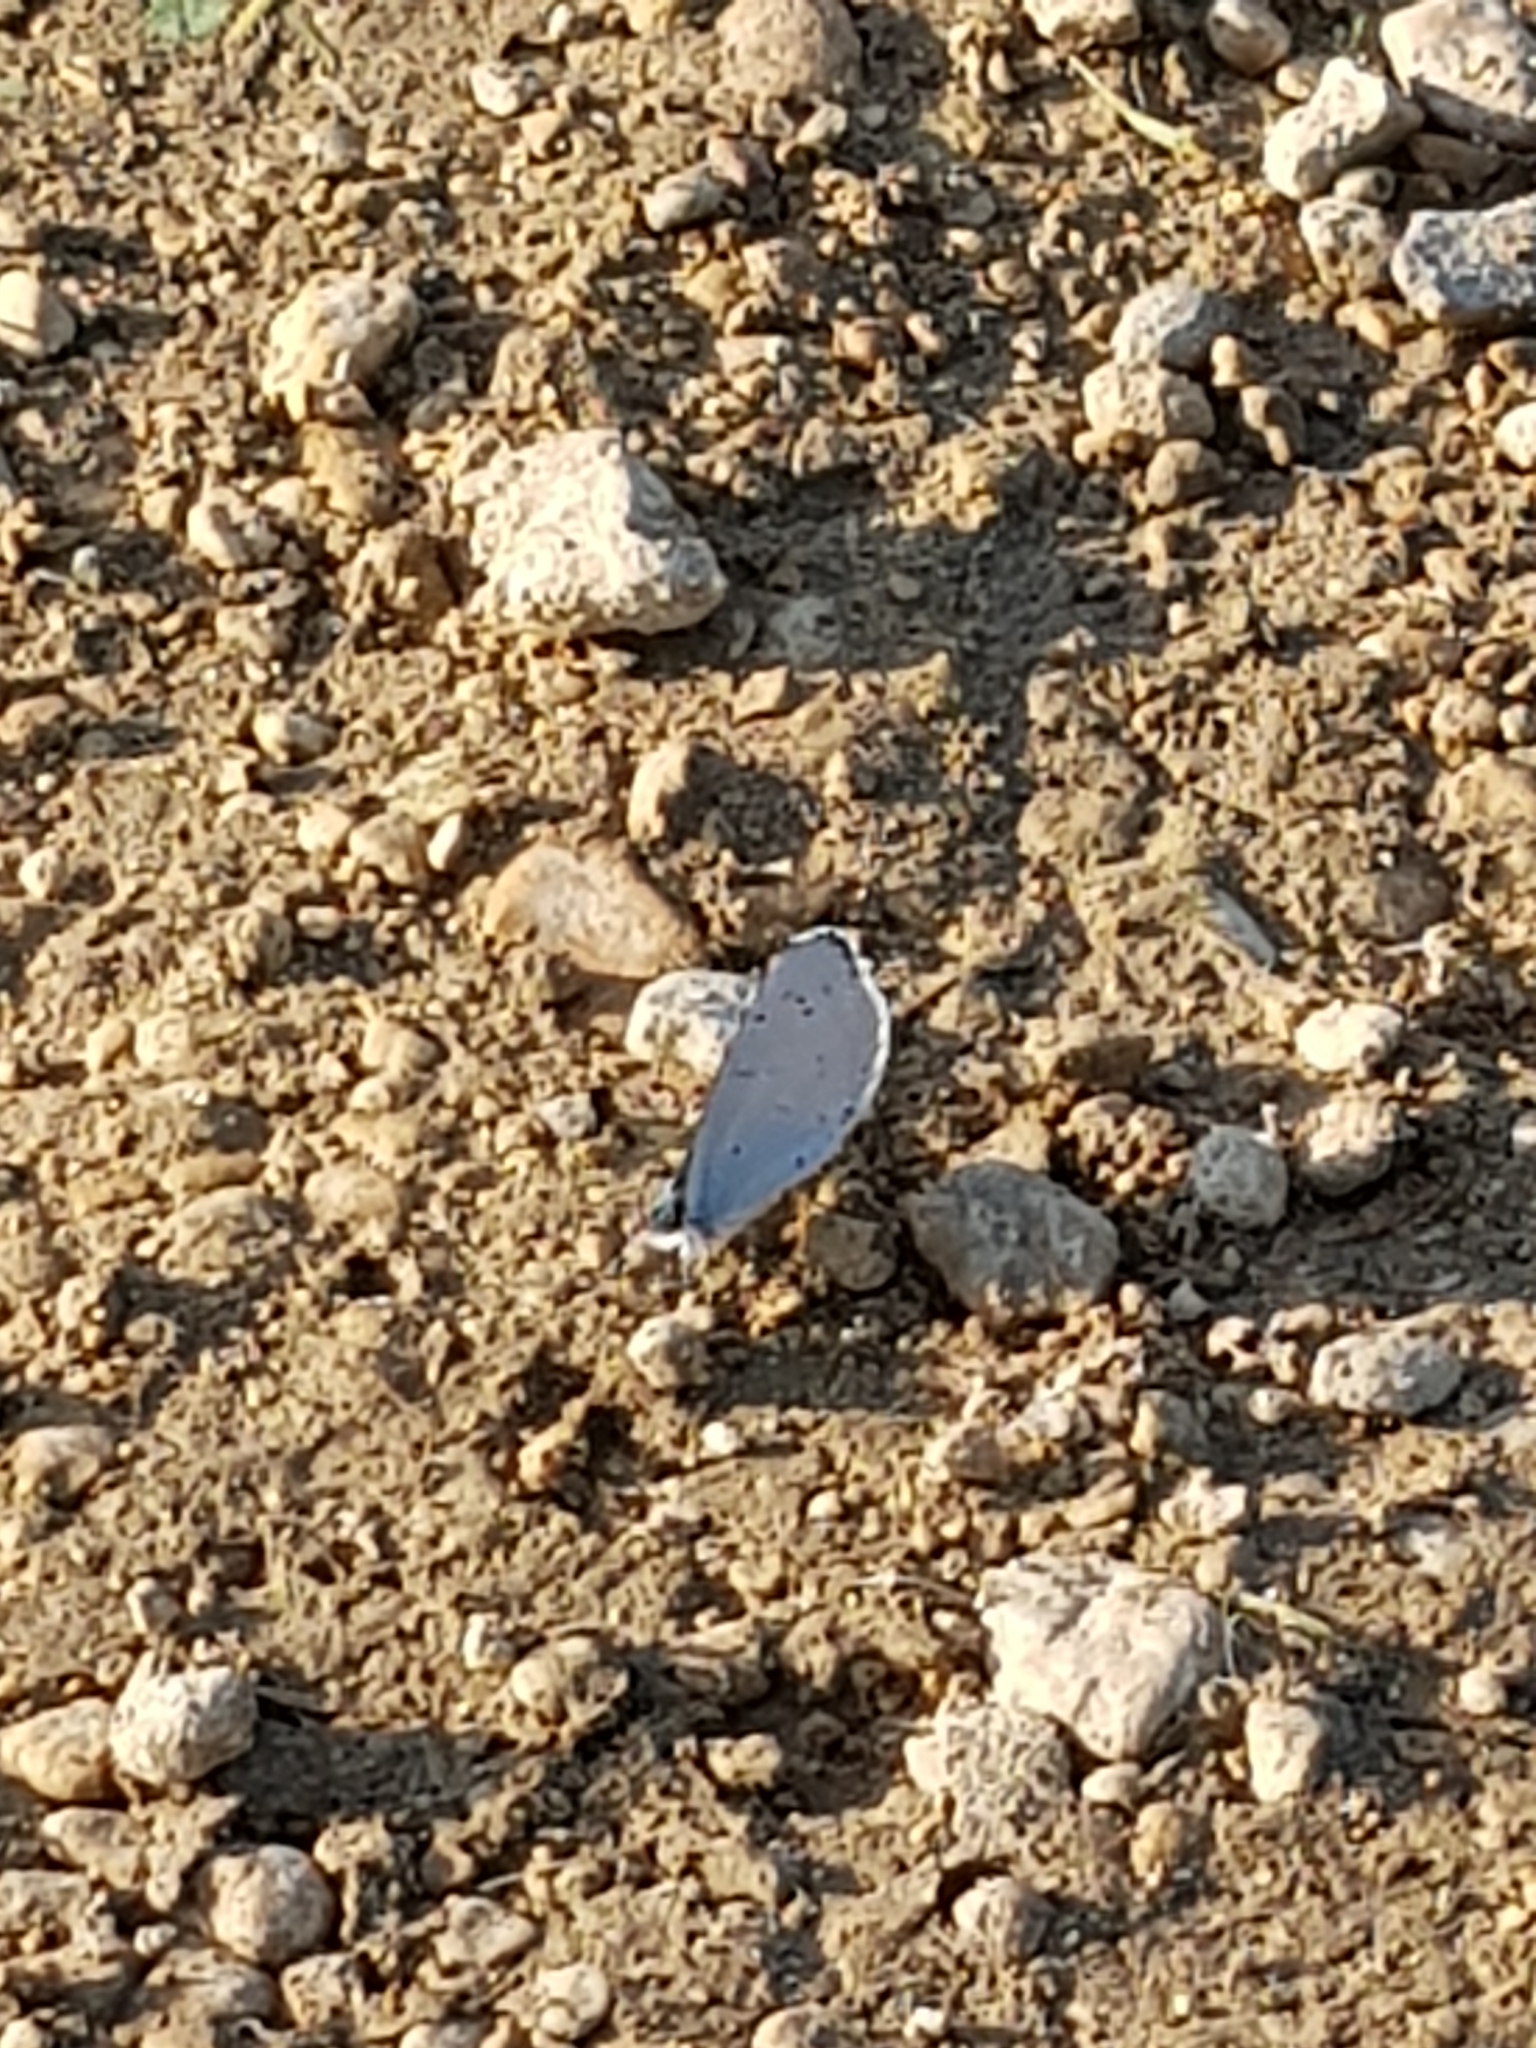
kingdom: Animalia
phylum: Arthropoda
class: Insecta
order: Lepidoptera
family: Lycaenidae
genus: Celastrina
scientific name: Celastrina argiolus
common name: Holly blue
